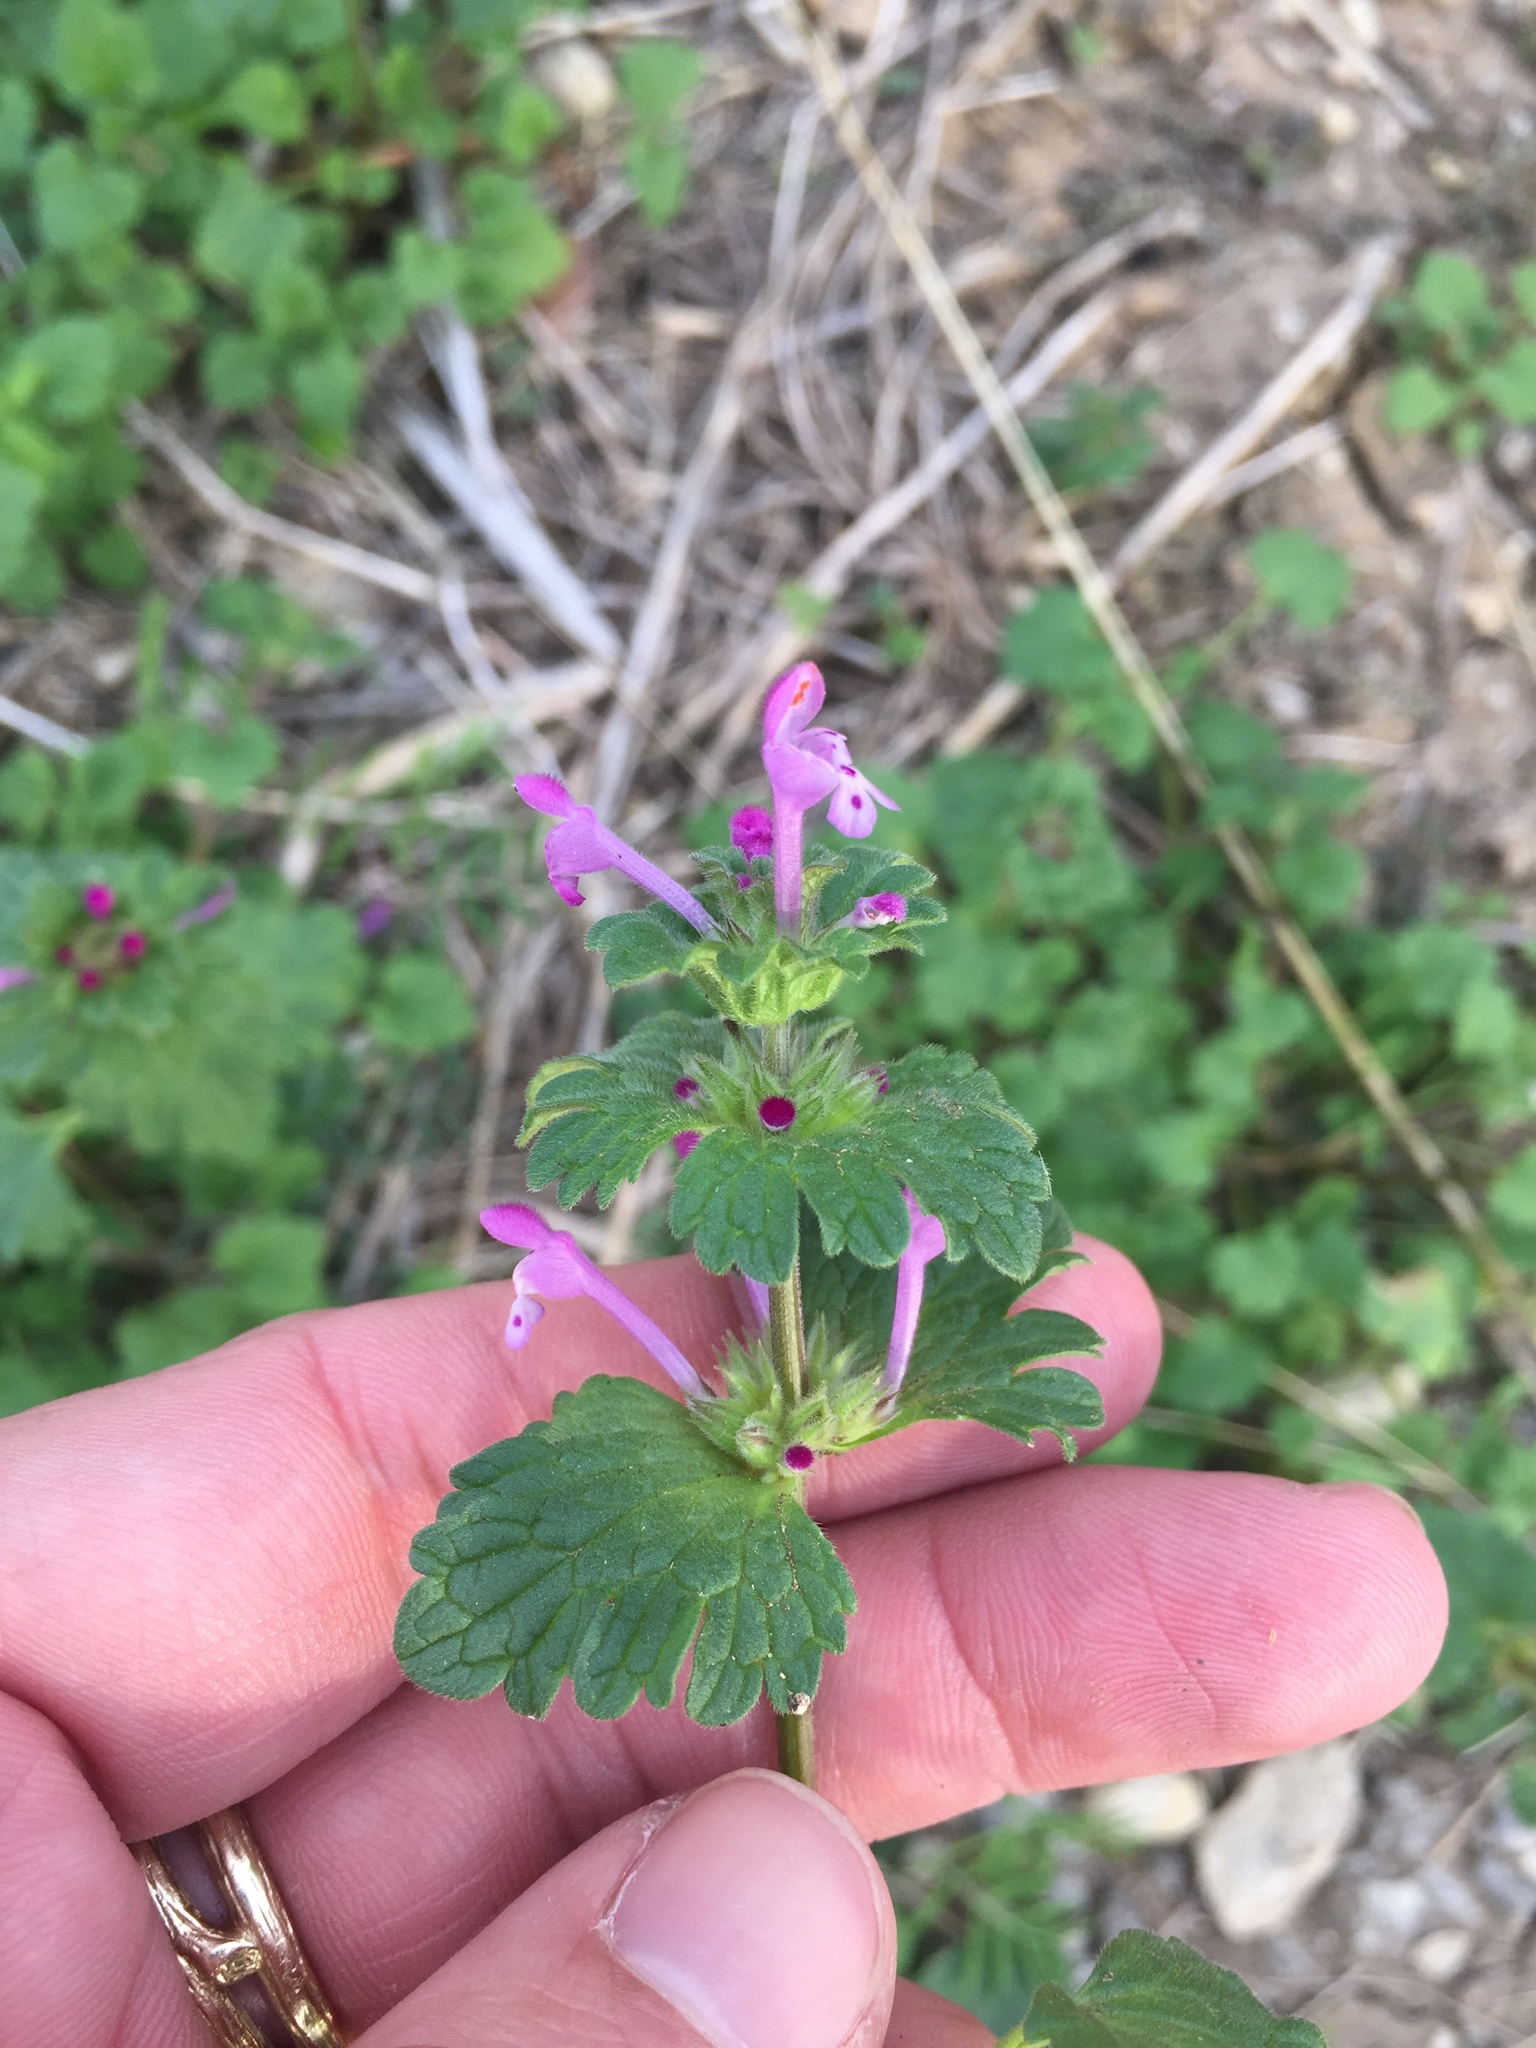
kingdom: Plantae
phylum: Tracheophyta
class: Magnoliopsida
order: Lamiales
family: Lamiaceae
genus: Lamium
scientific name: Lamium amplexicaule
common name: Henbit dead-nettle
